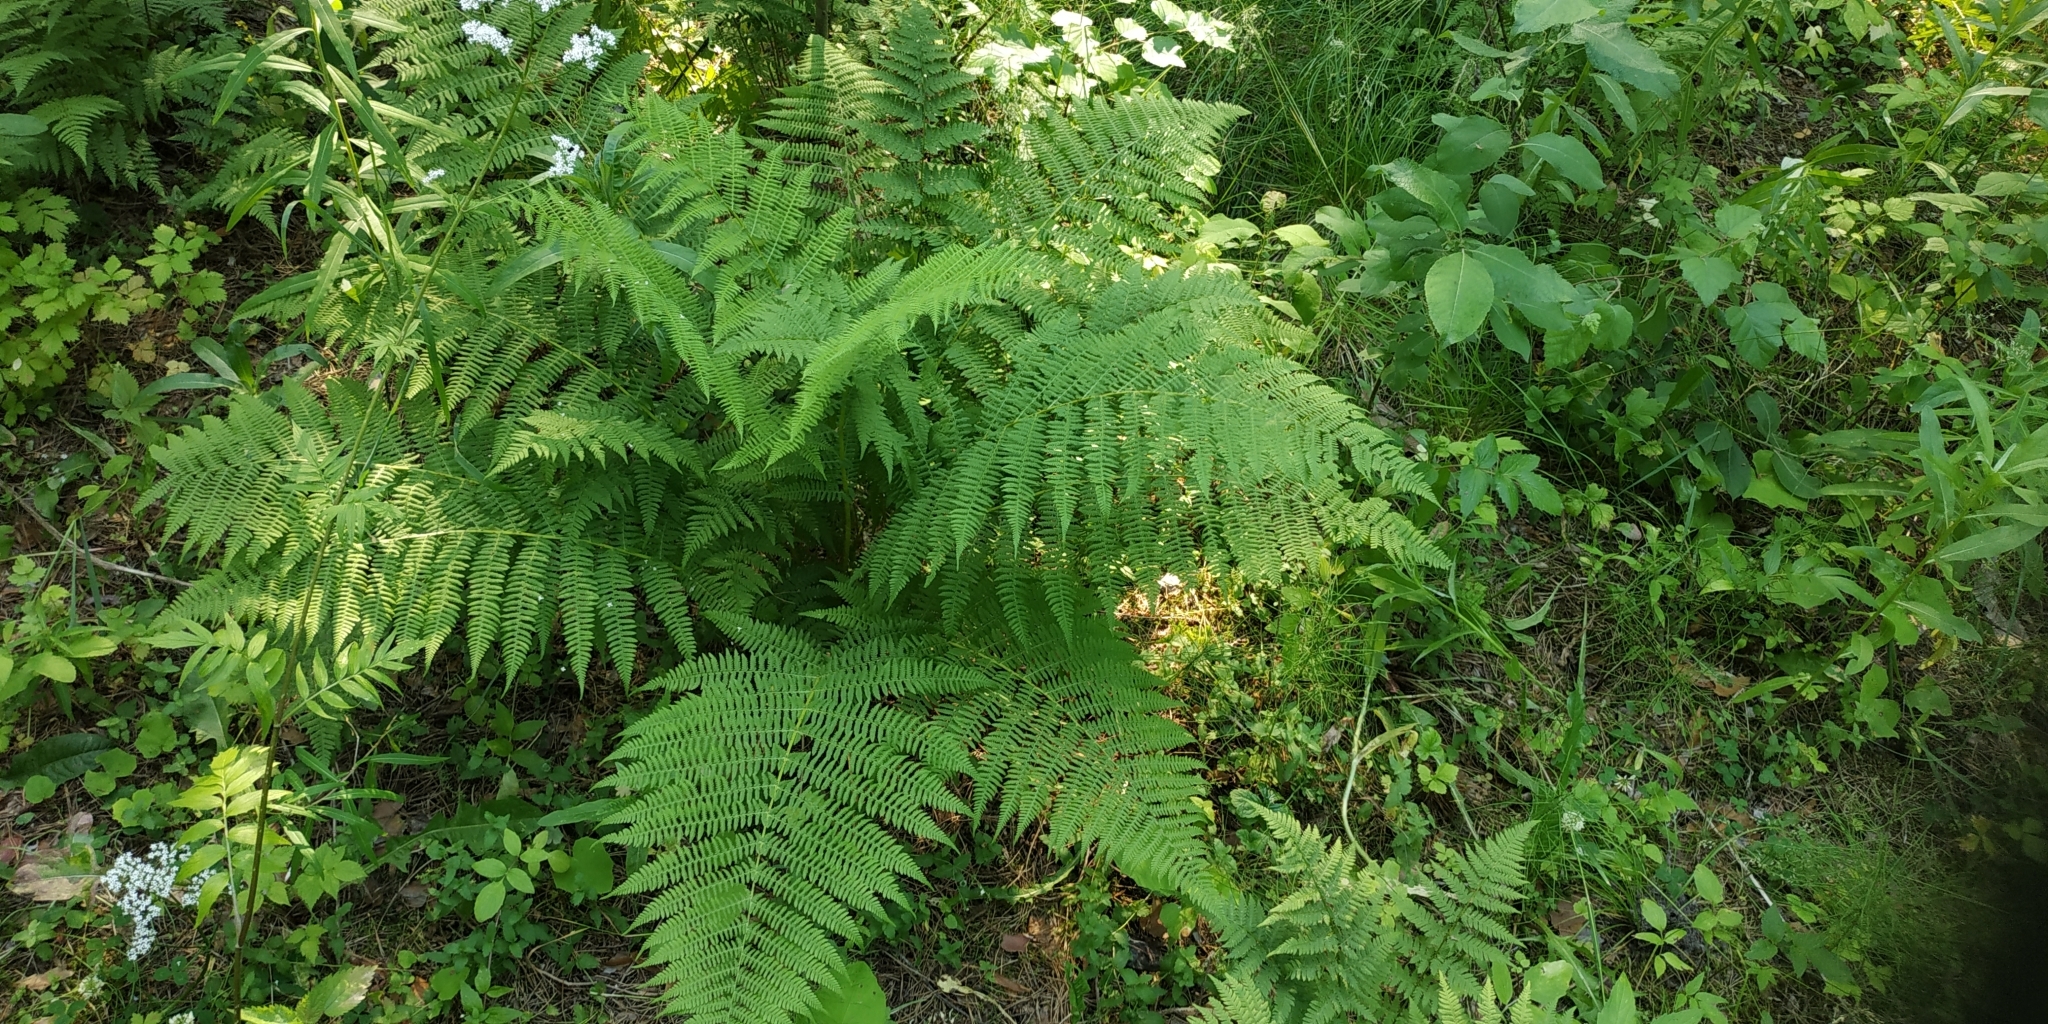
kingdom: Plantae
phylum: Tracheophyta
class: Polypodiopsida
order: Polypodiales
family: Athyriaceae
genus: Athyrium
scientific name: Athyrium filix-femina
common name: Lady fern
